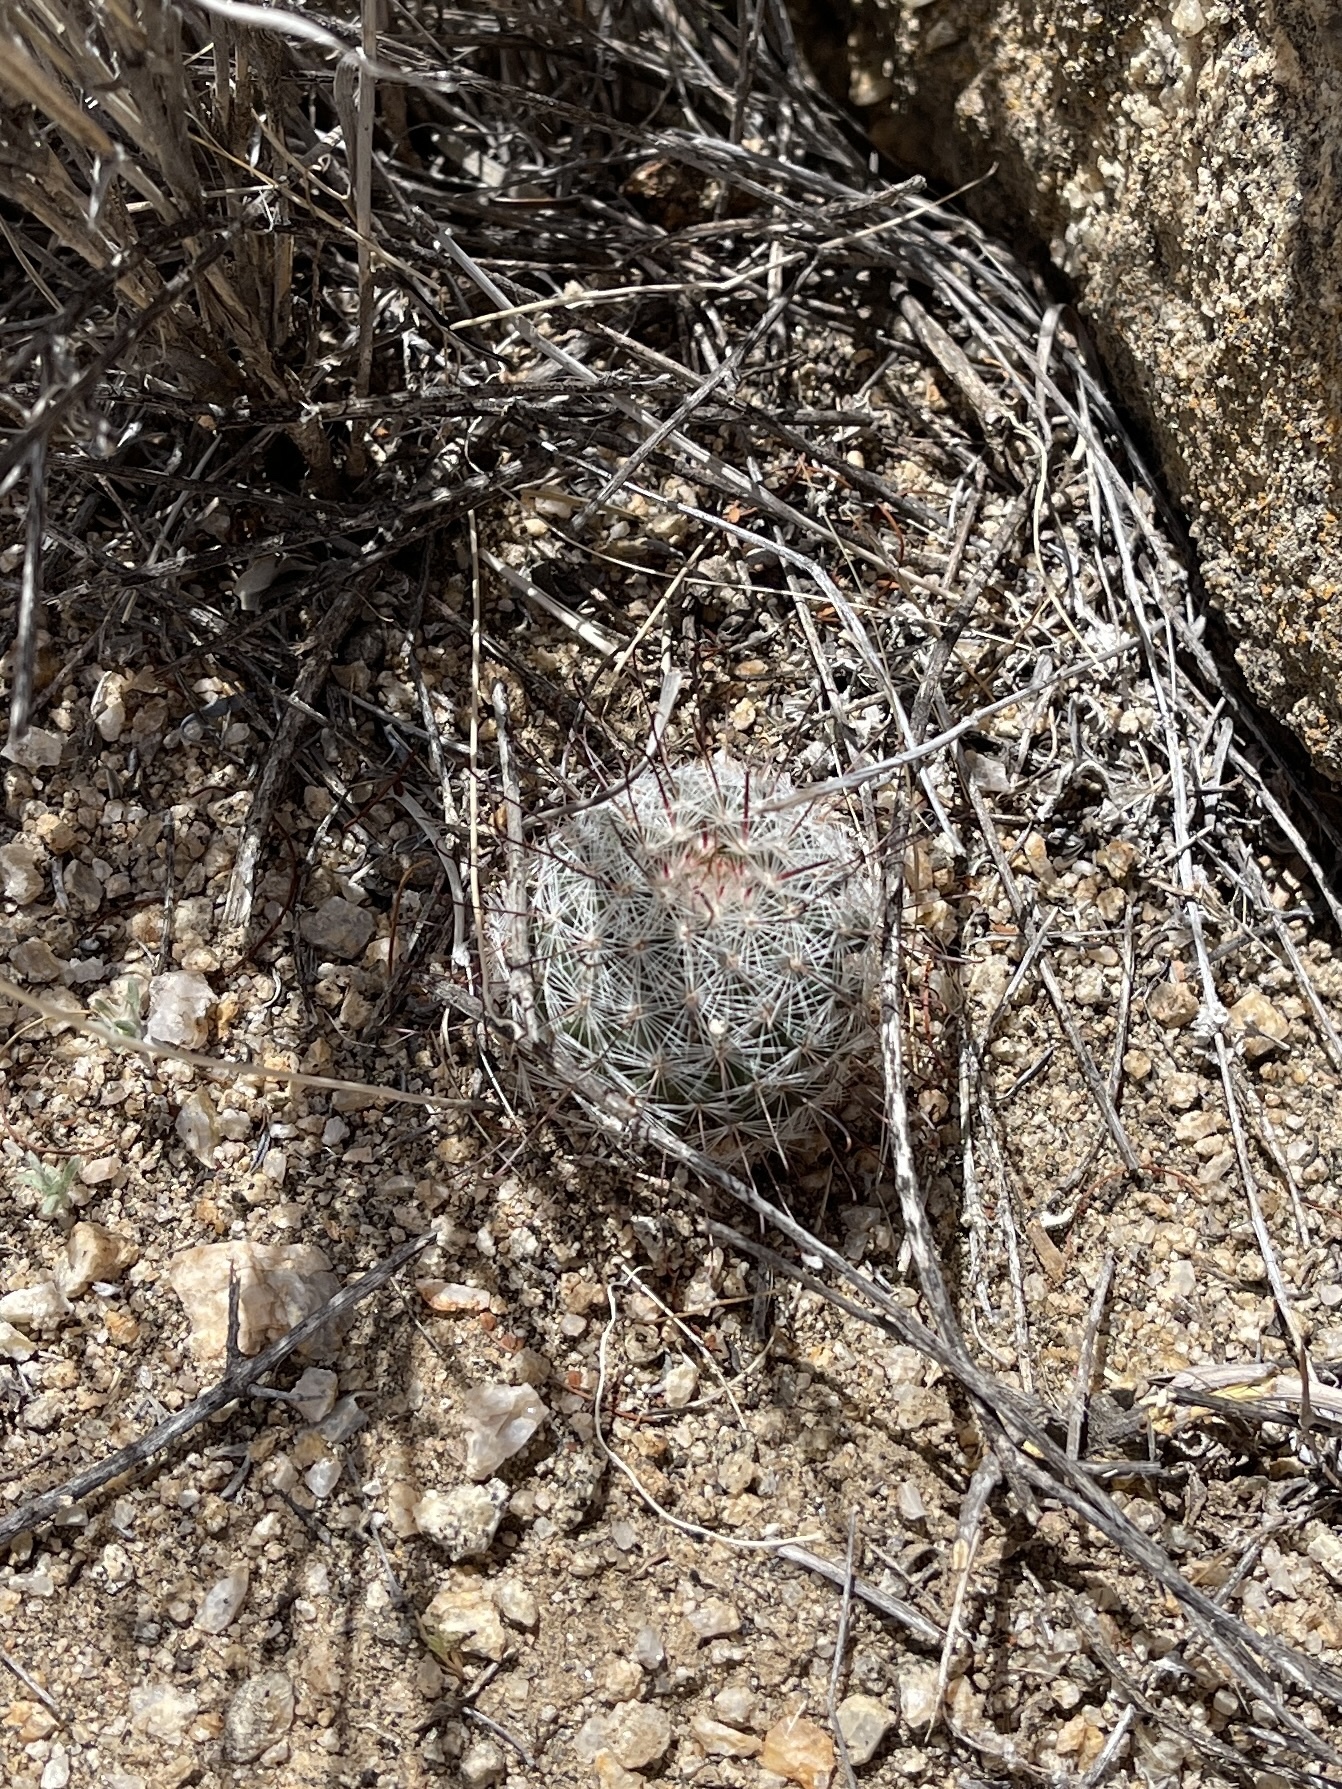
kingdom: Plantae
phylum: Tracheophyta
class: Magnoliopsida
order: Caryophyllales
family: Cactaceae
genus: Cochemiea
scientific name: Cochemiea grahamii
